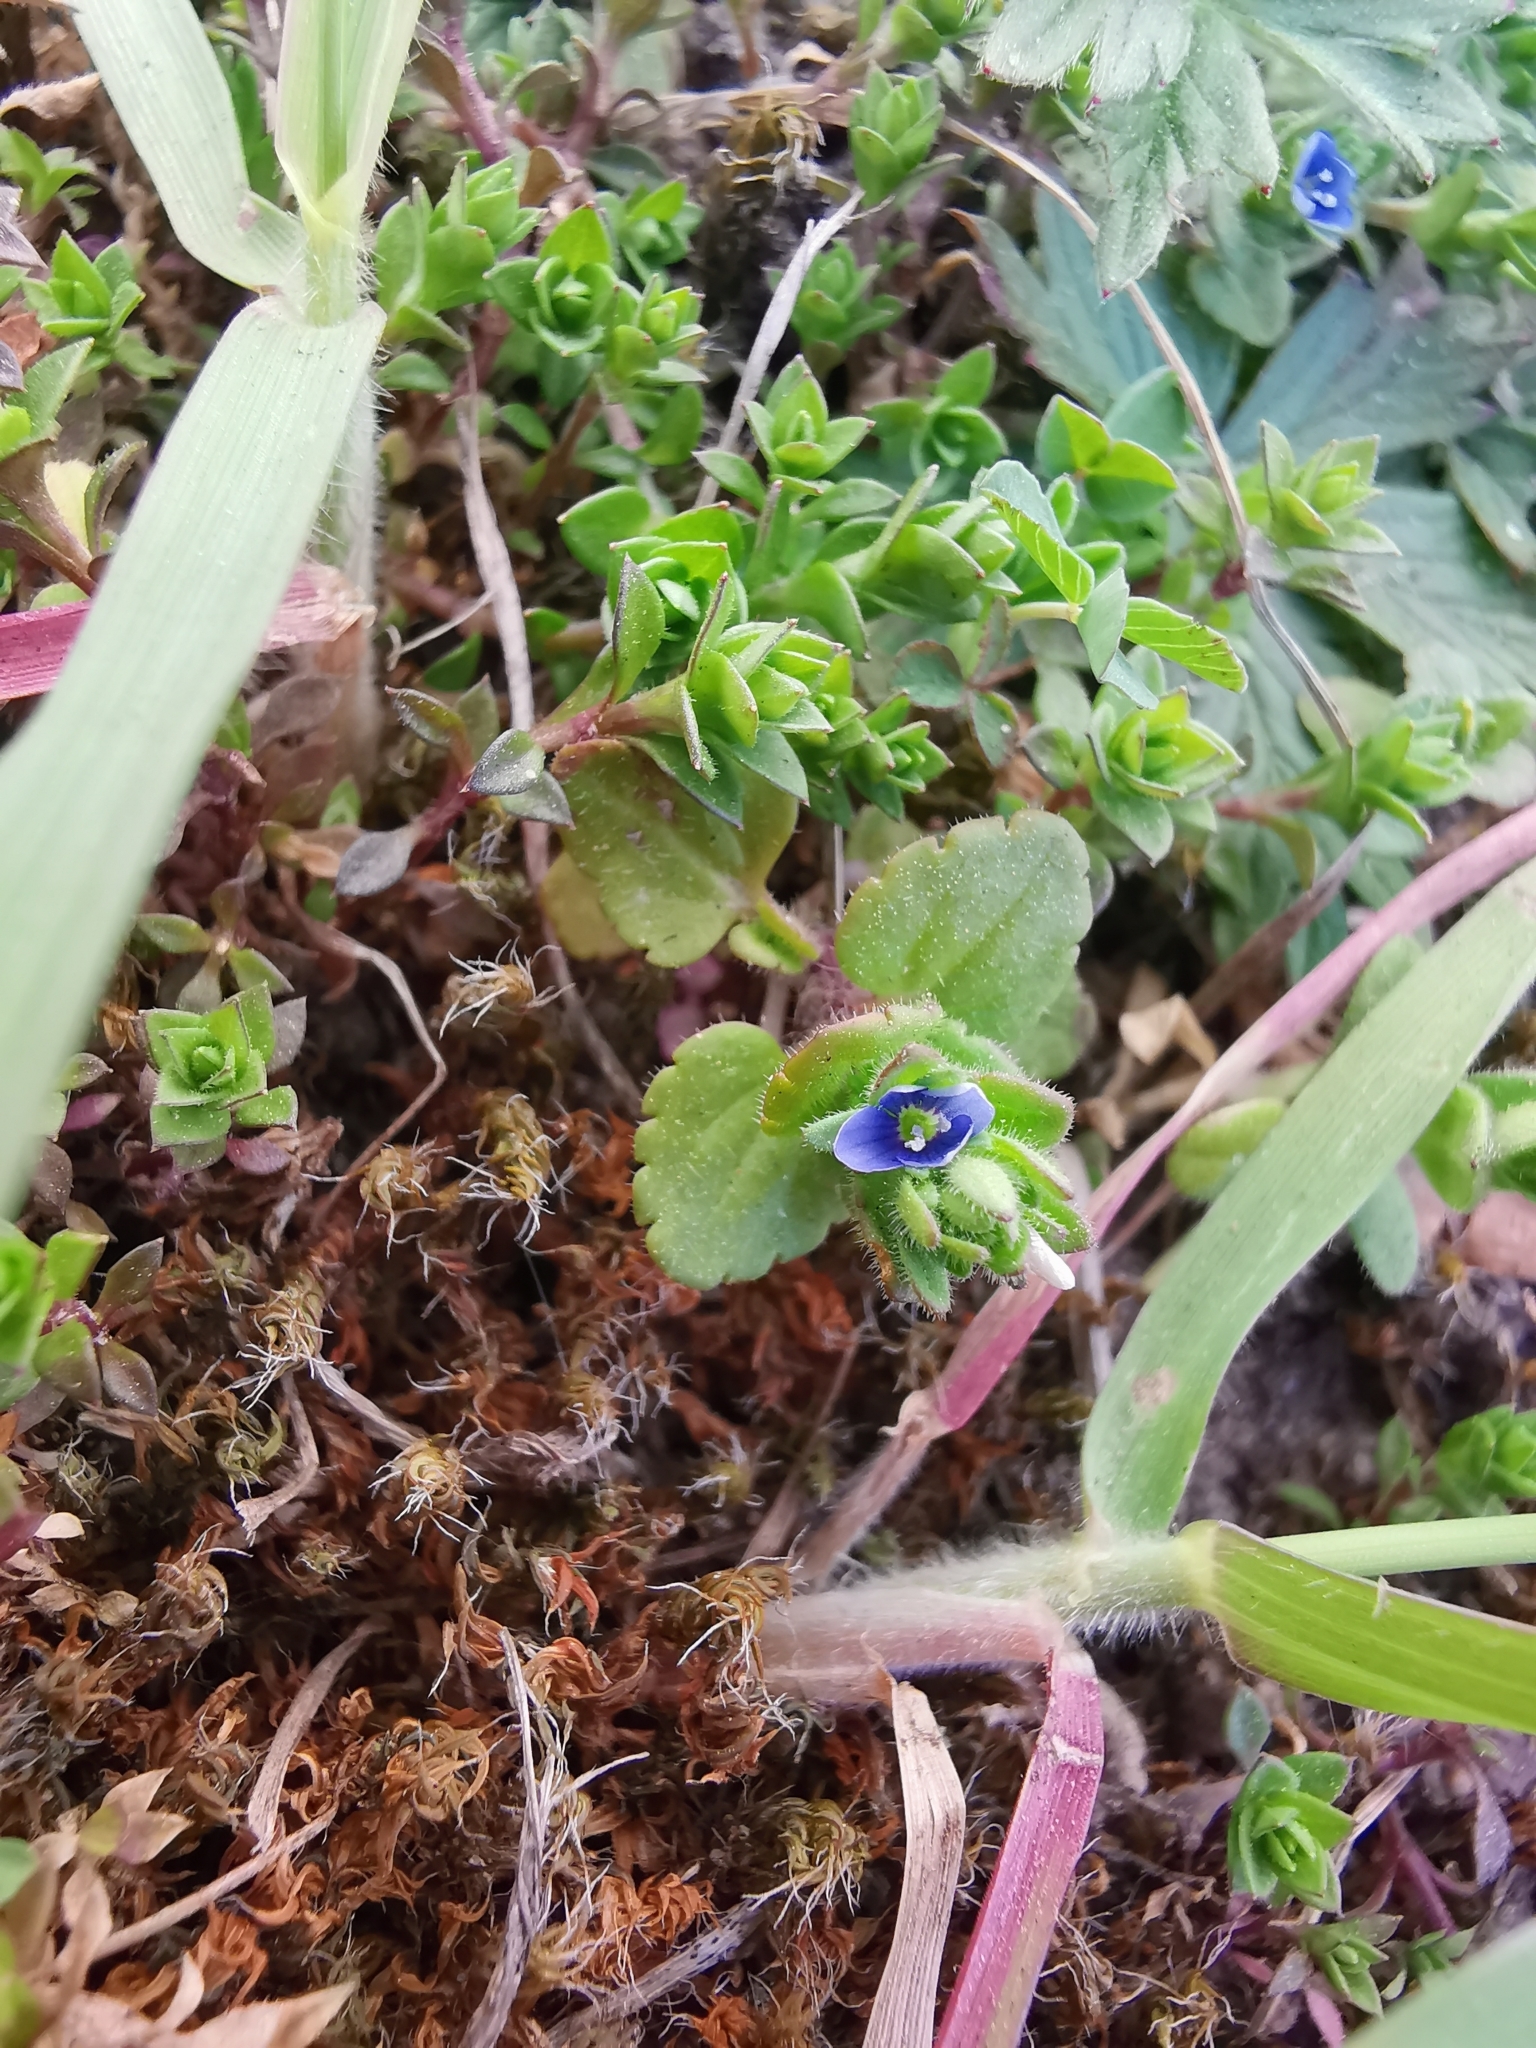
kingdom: Plantae
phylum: Tracheophyta
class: Magnoliopsida
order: Lamiales
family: Plantaginaceae
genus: Veronica
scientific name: Veronica arvensis
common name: Corn speedwell
